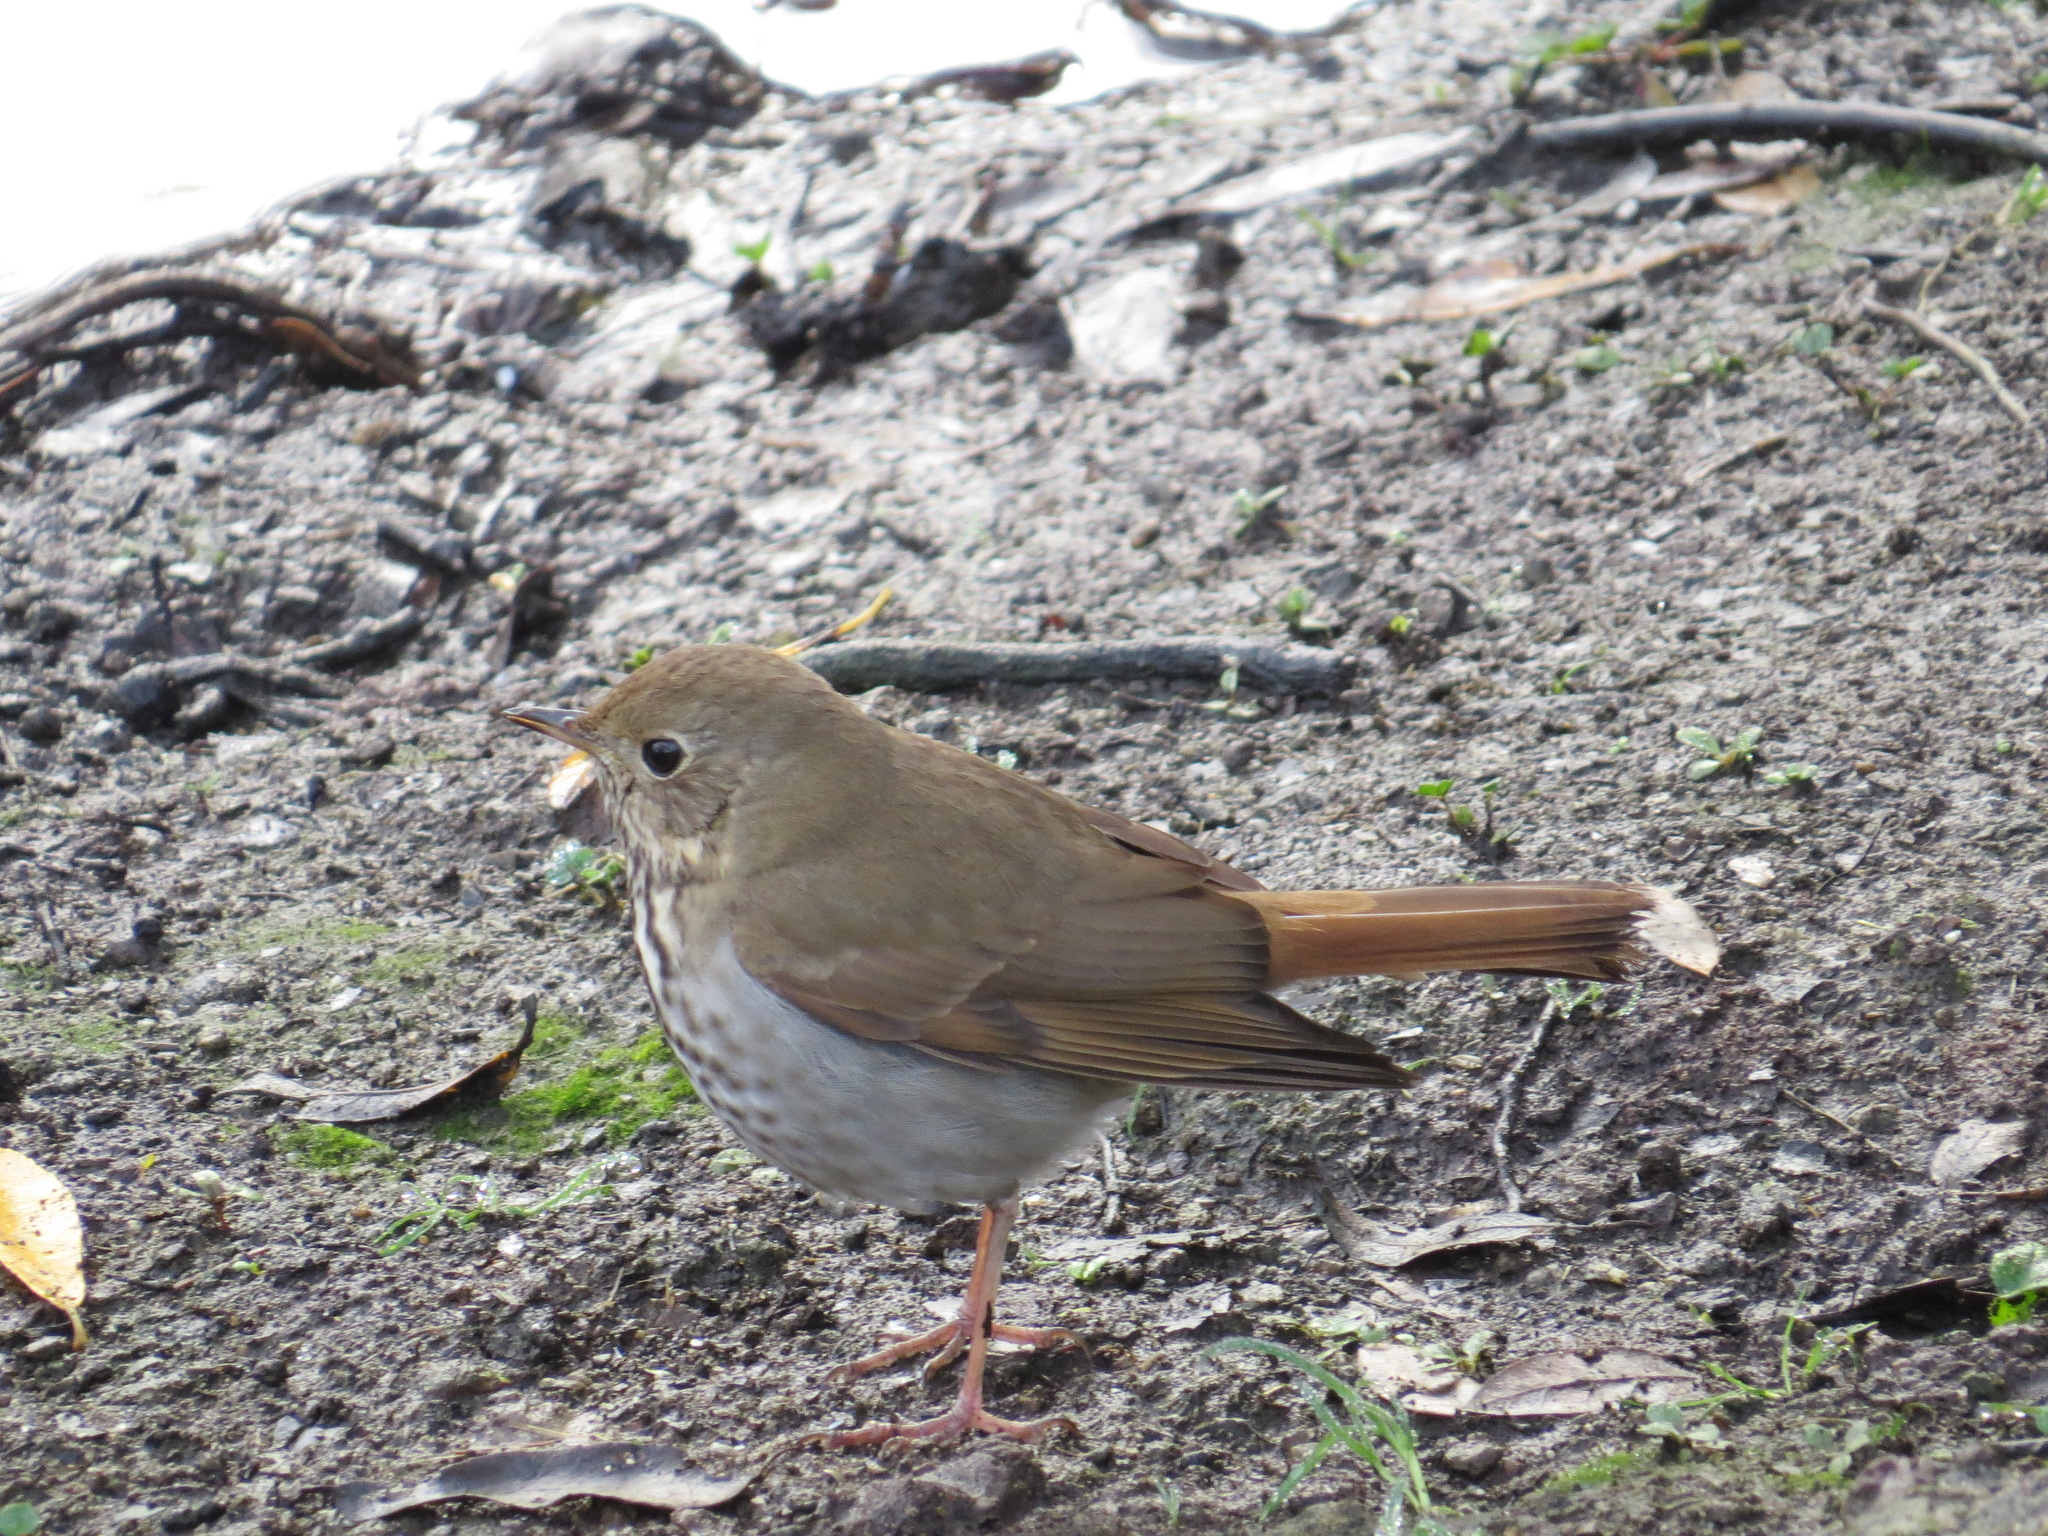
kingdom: Animalia
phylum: Chordata
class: Aves
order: Passeriformes
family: Turdidae
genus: Catharus
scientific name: Catharus guttatus
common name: Hermit thrush
